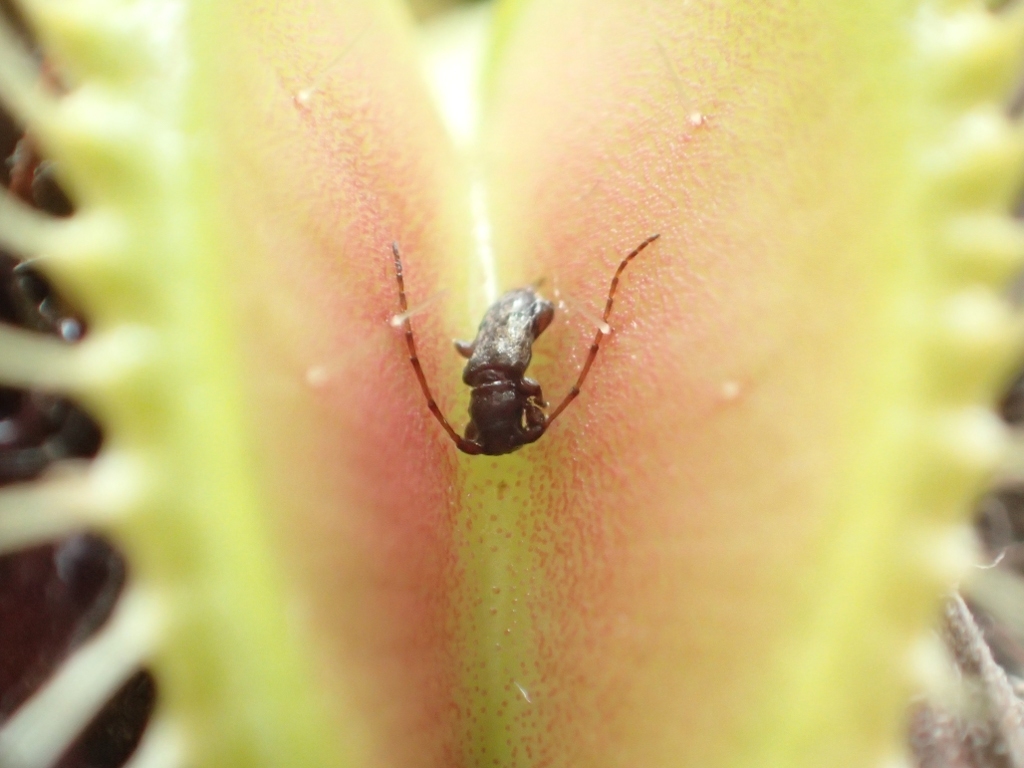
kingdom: Animalia
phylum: Arthropoda
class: Insecta
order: Coleoptera
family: Cerambycidae
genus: Bethelium
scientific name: Bethelium signiferum
